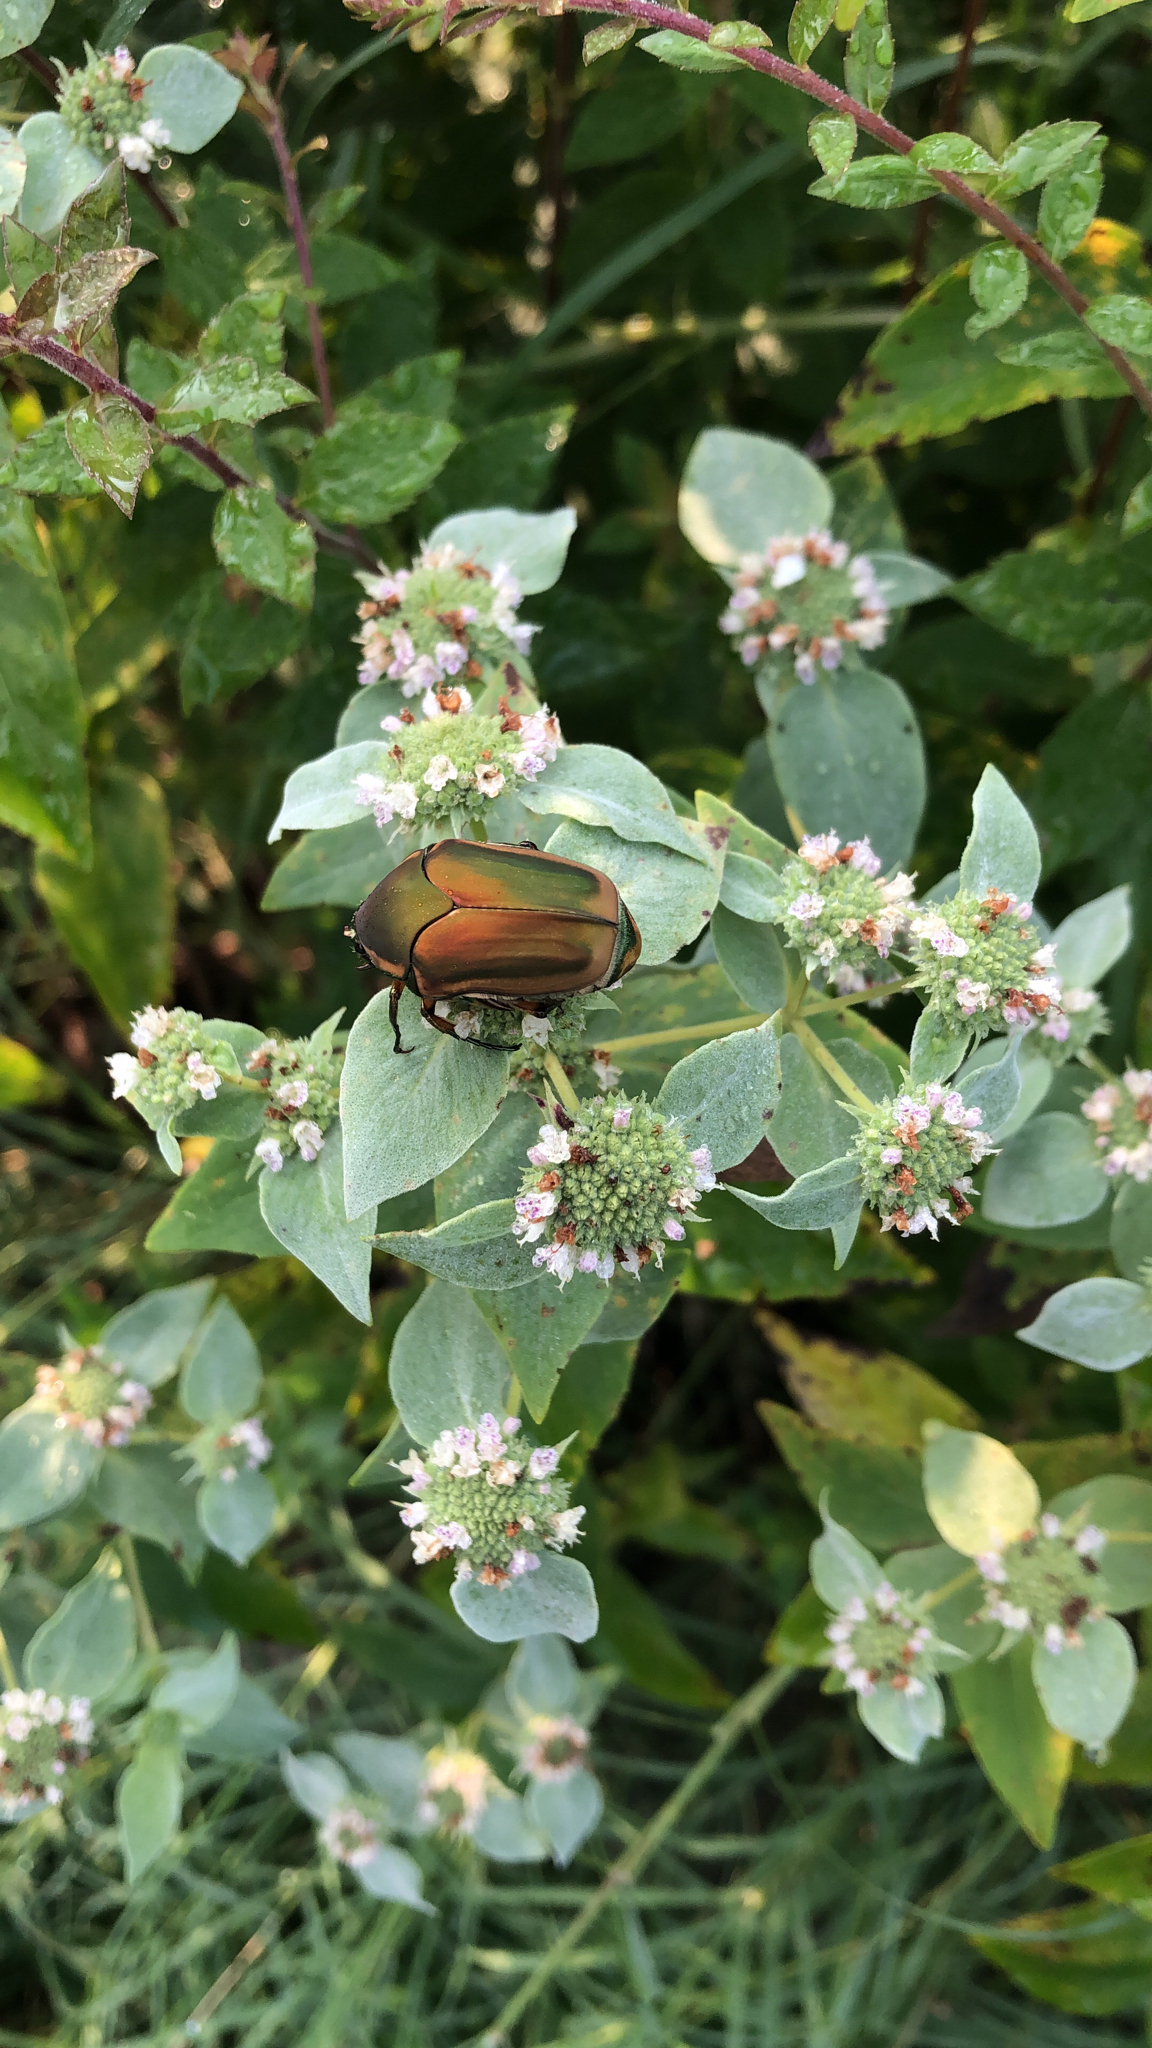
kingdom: Animalia
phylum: Arthropoda
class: Insecta
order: Coleoptera
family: Scarabaeidae
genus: Cotinis
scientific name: Cotinis nitida
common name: Common green june beetle
